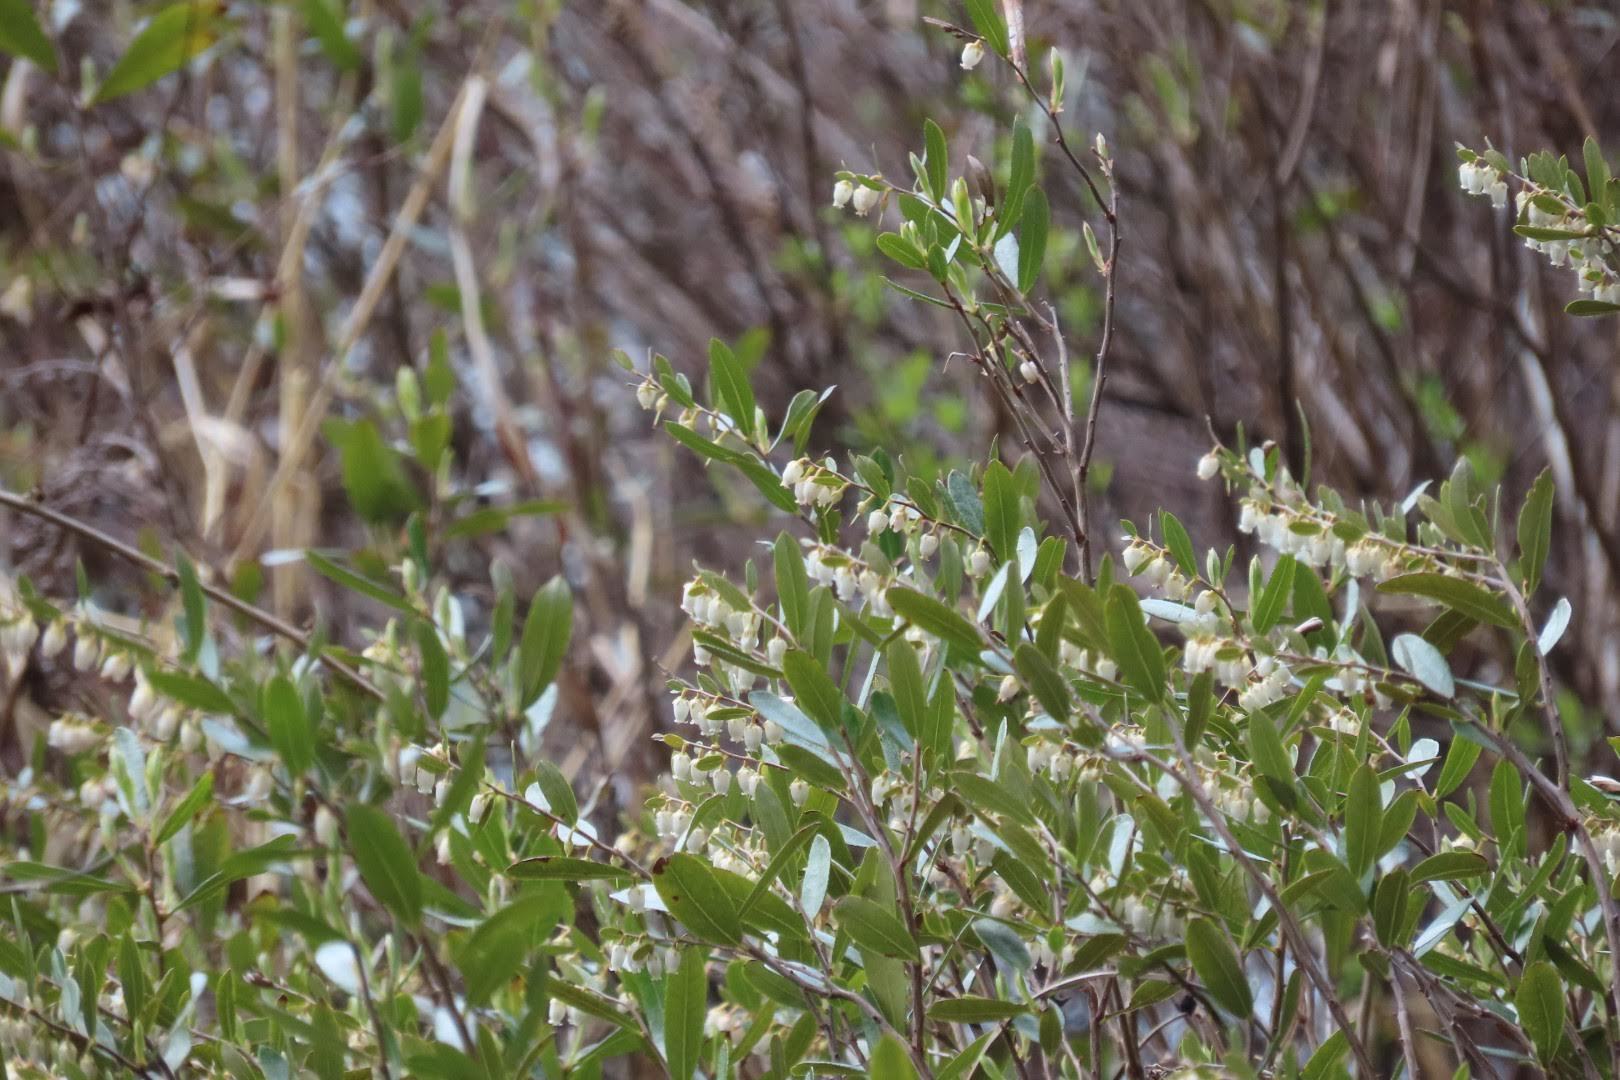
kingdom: Plantae
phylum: Tracheophyta
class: Magnoliopsida
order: Ericales
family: Ericaceae
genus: Chamaedaphne
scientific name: Chamaedaphne calyculata
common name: Leatherleaf
